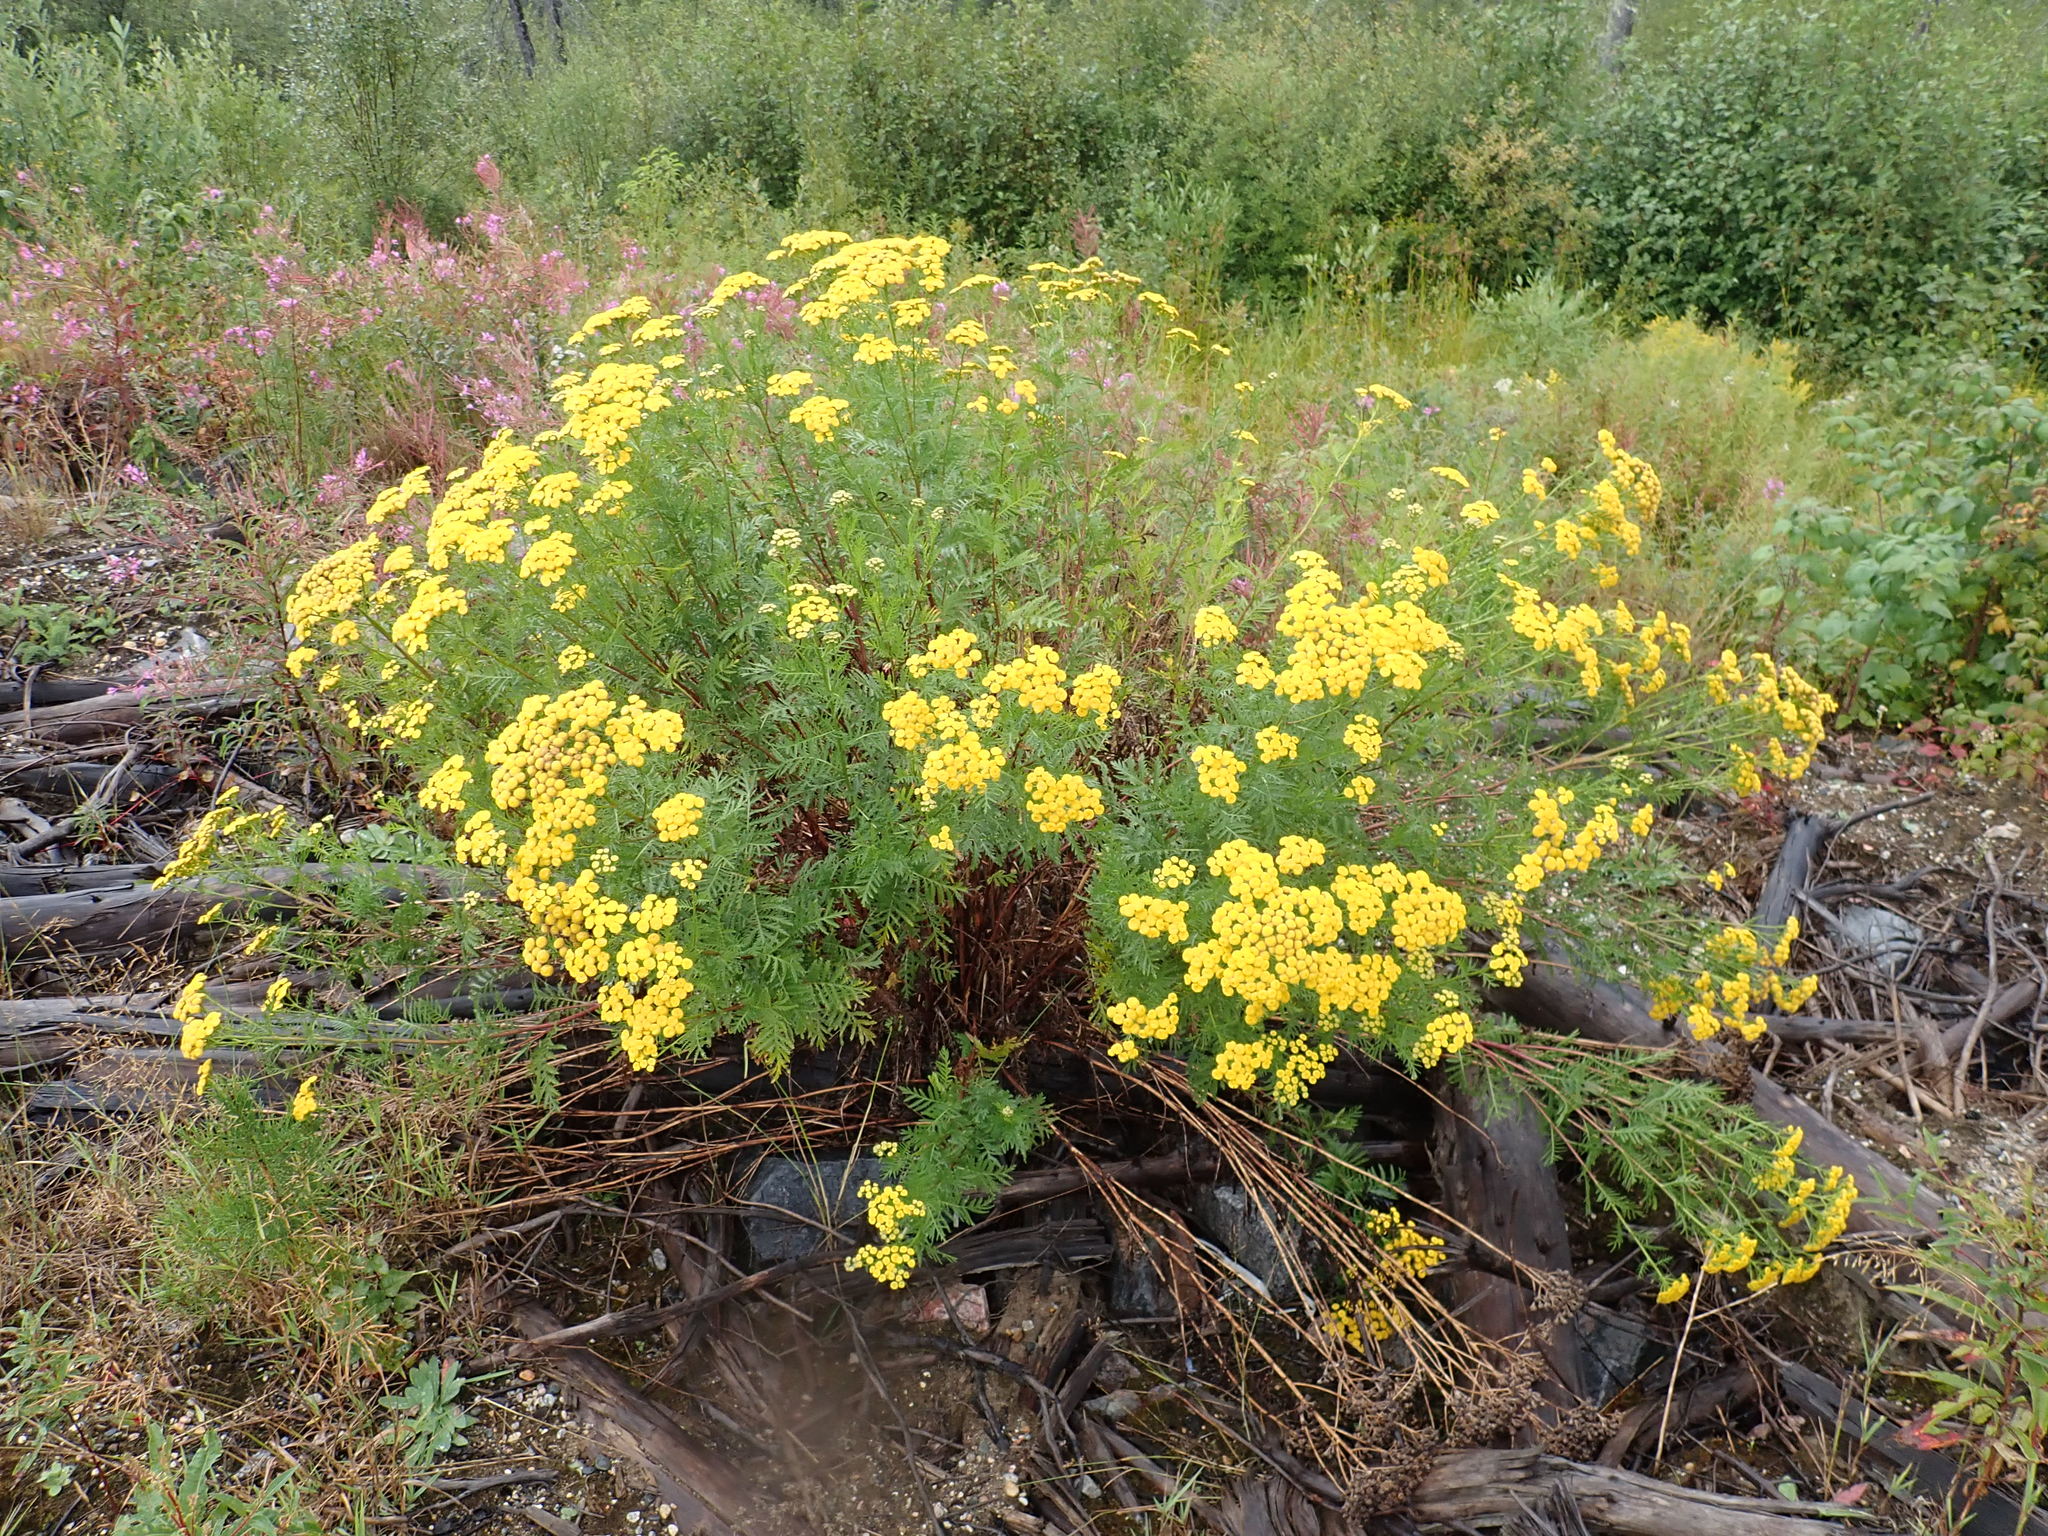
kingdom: Plantae
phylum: Tracheophyta
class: Magnoliopsida
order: Asterales
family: Asteraceae
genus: Tanacetum
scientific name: Tanacetum vulgare
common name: Common tansy
